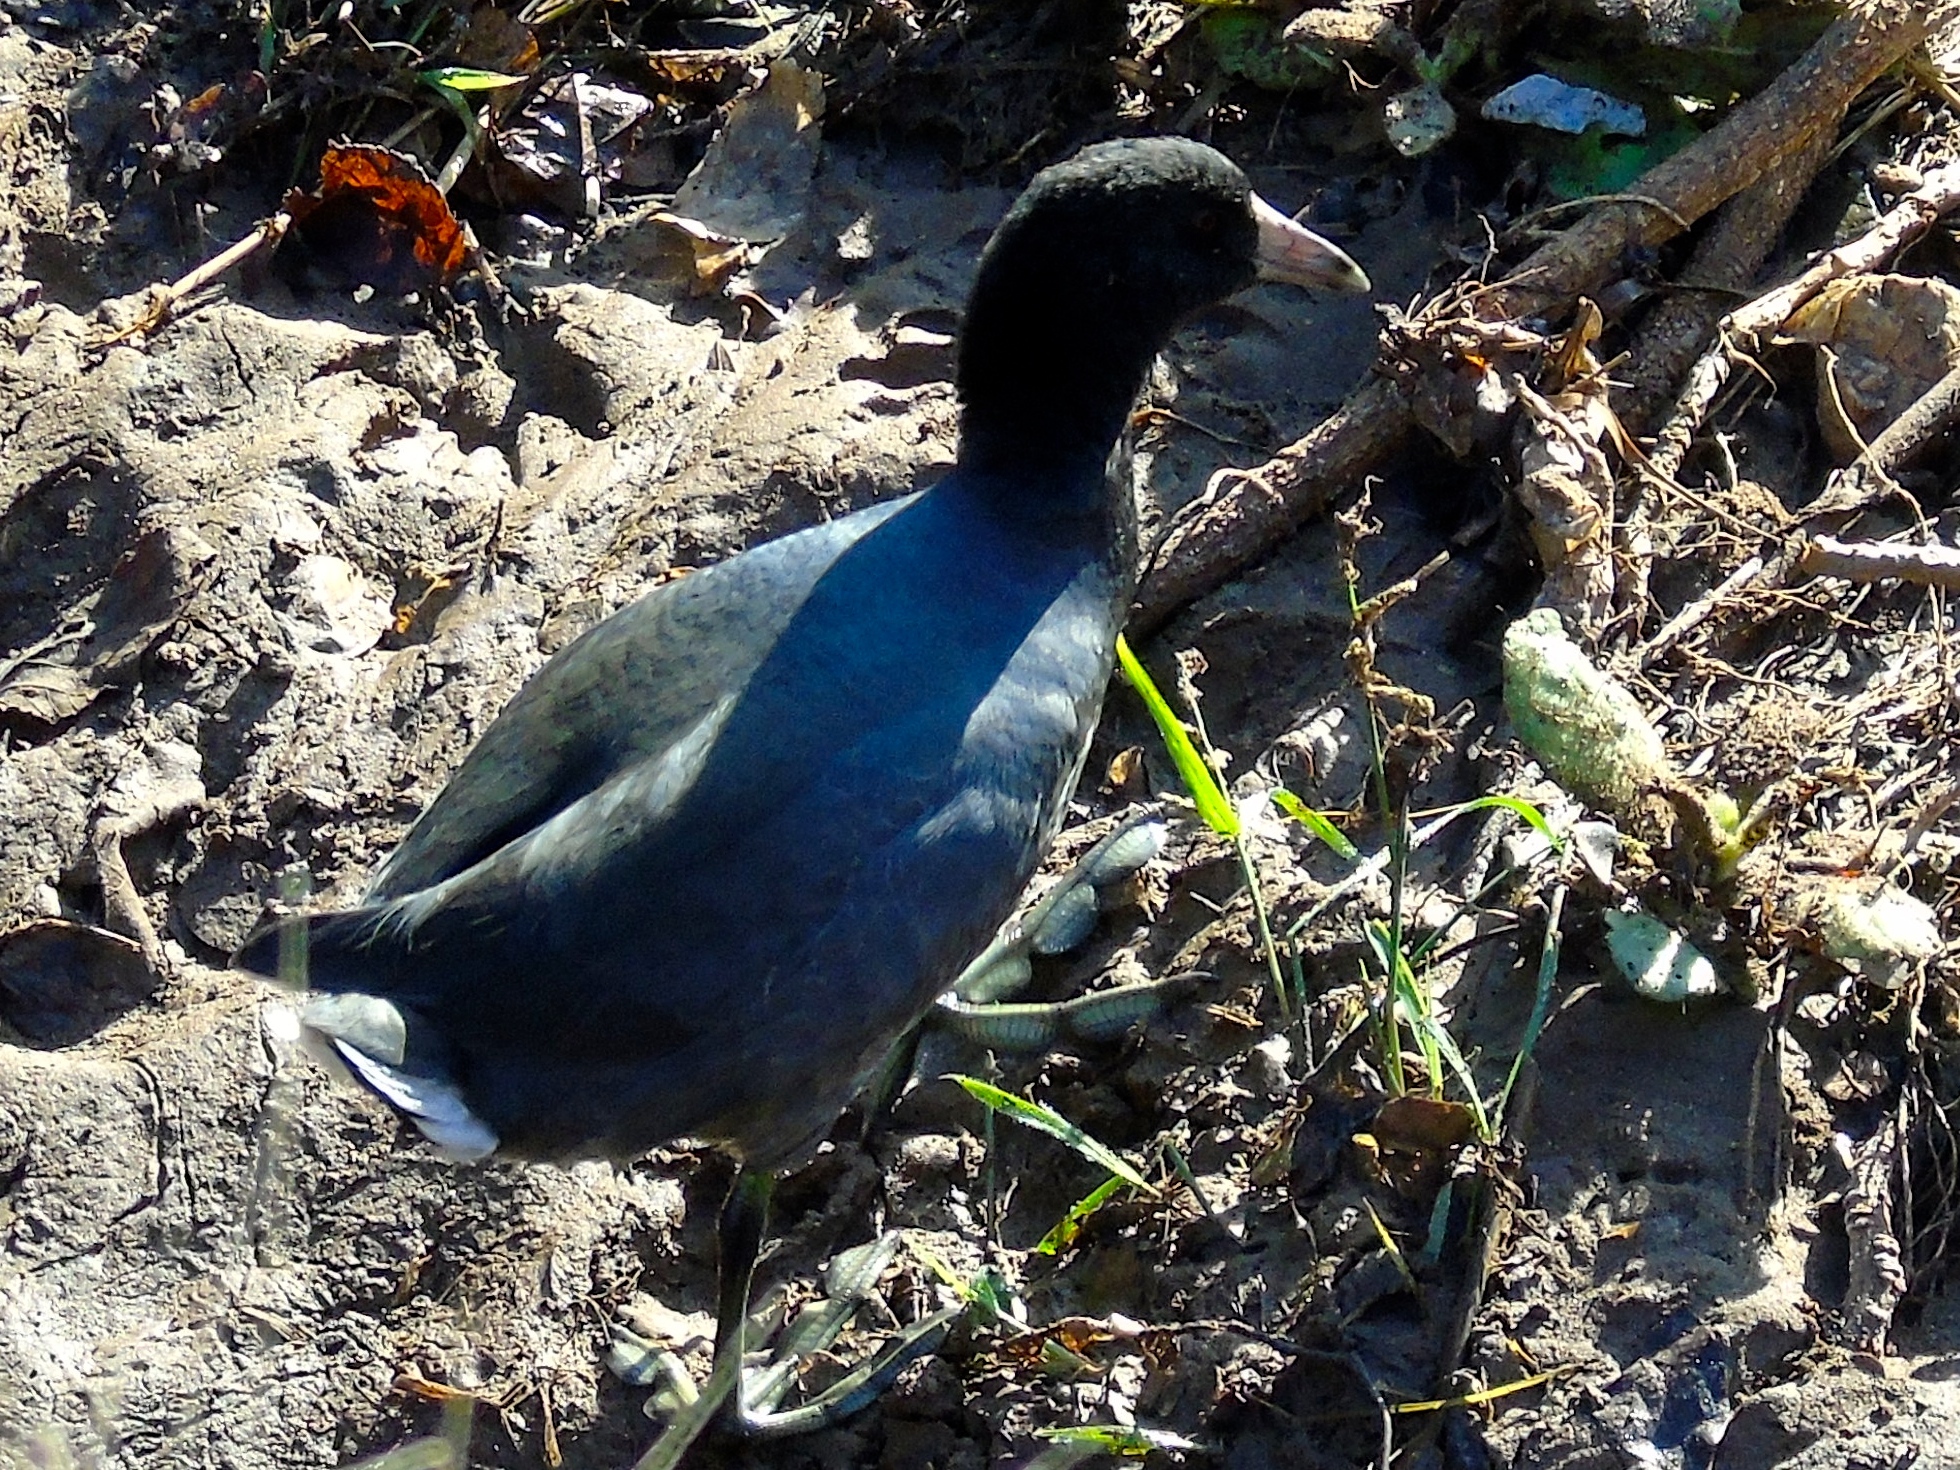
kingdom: Animalia
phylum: Chordata
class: Aves
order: Gruiformes
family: Rallidae
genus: Fulica
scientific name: Fulica americana
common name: American coot
